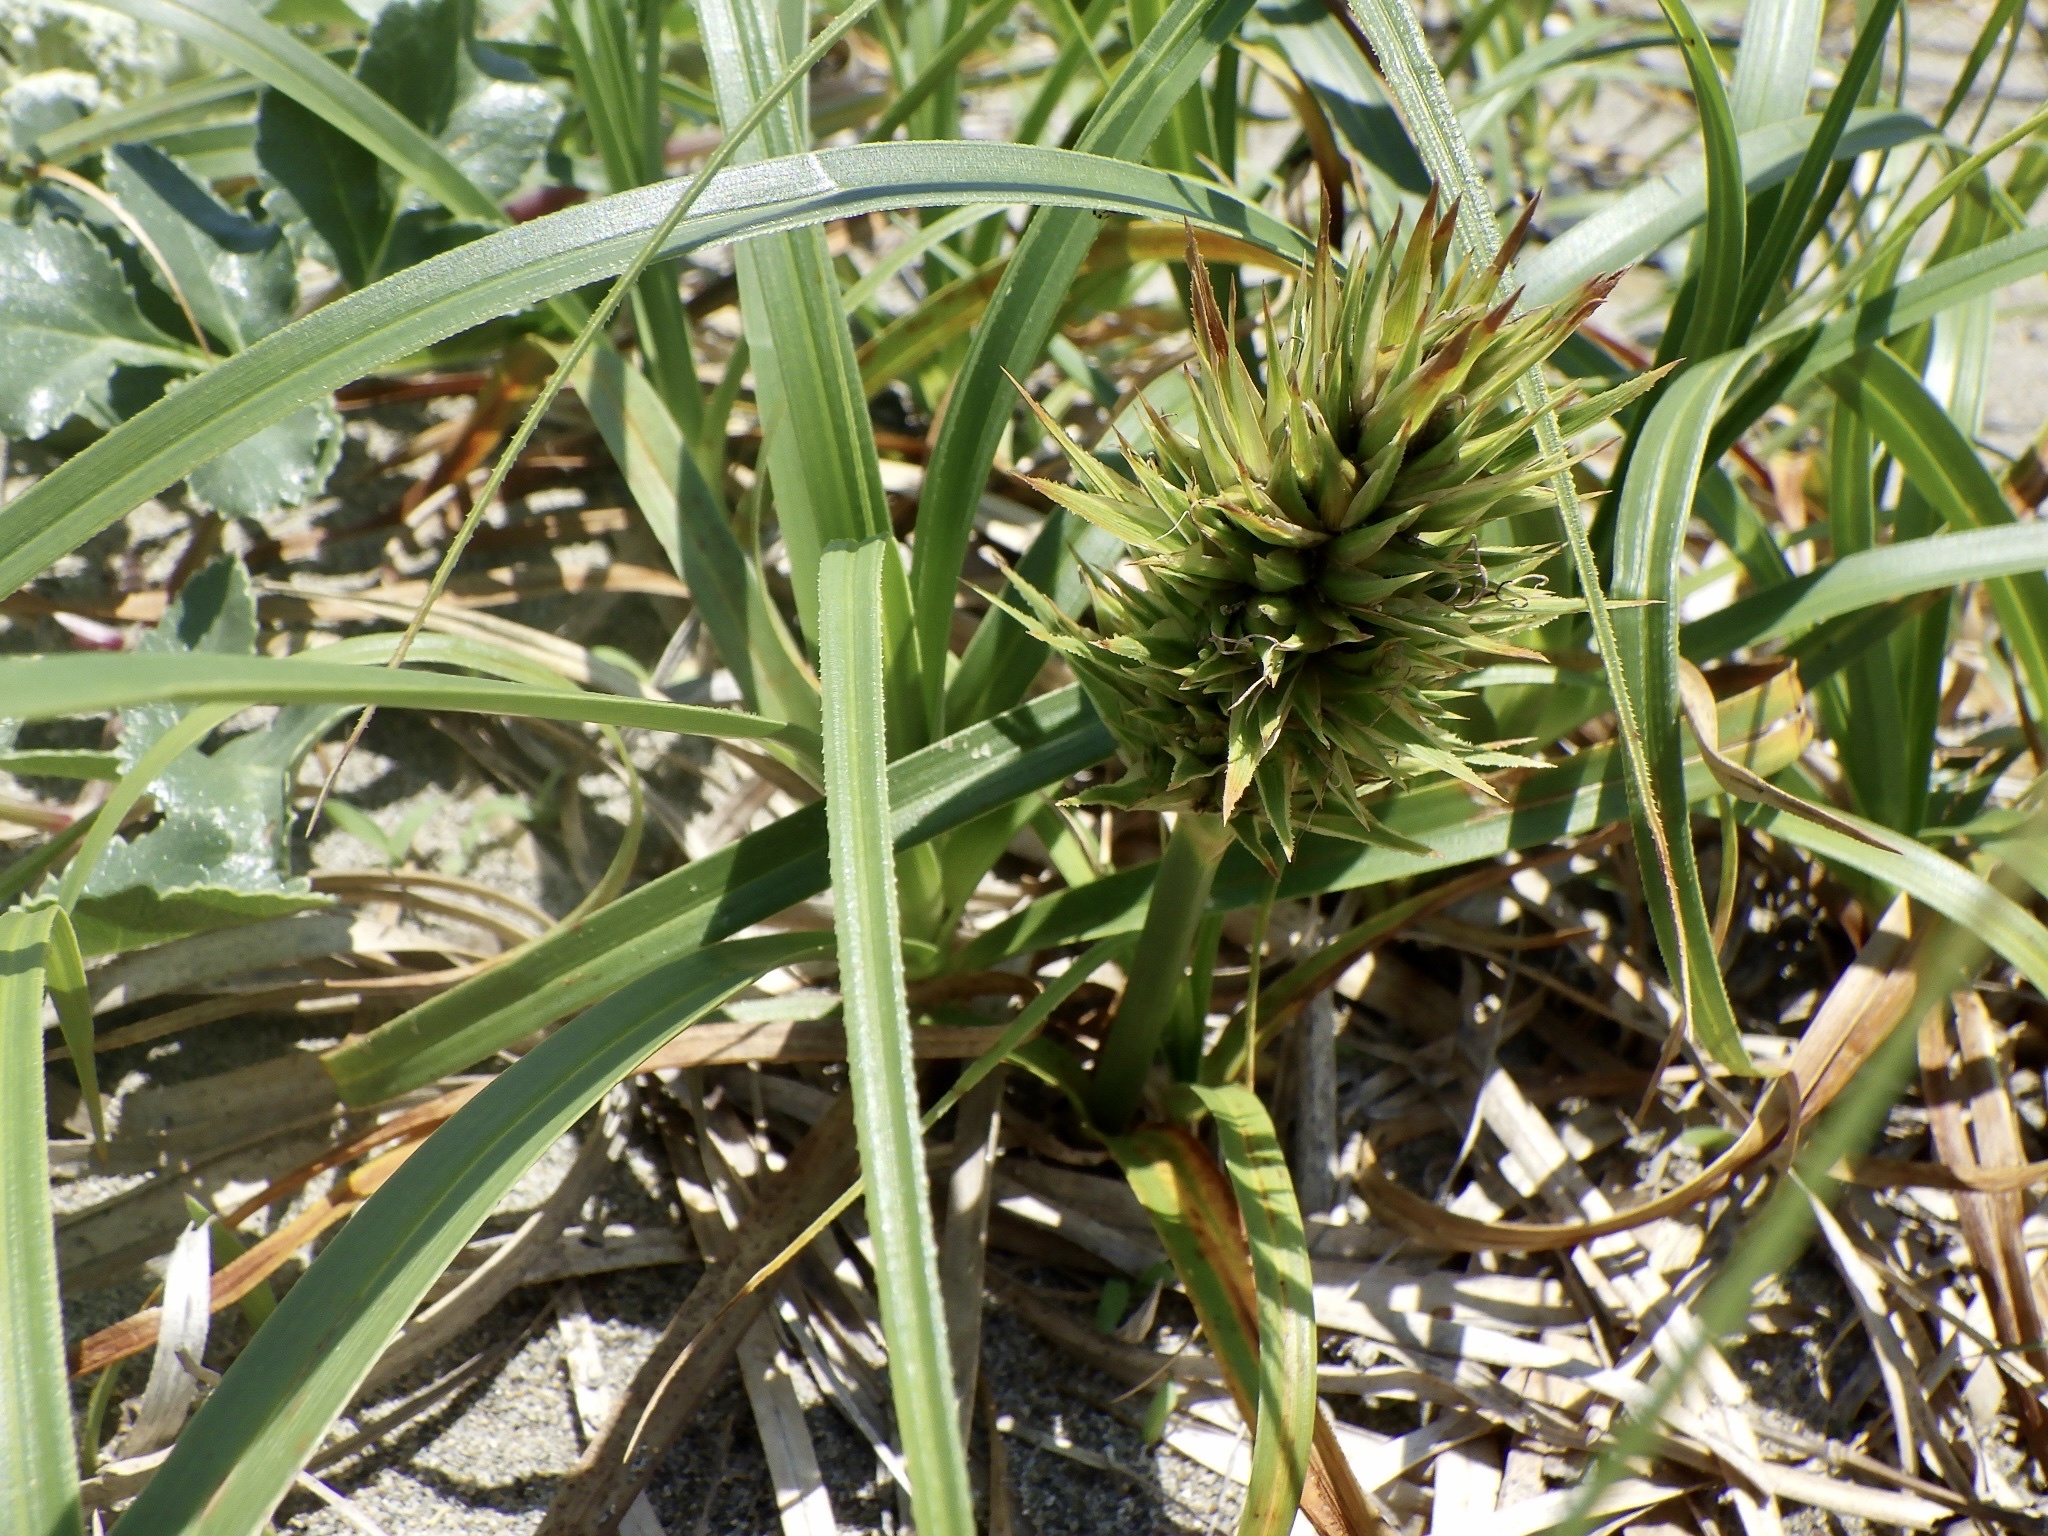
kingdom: Plantae
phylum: Tracheophyta
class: Liliopsida
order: Poales
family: Cyperaceae
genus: Carex
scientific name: Carex kobomugi
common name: Japanese sedge
